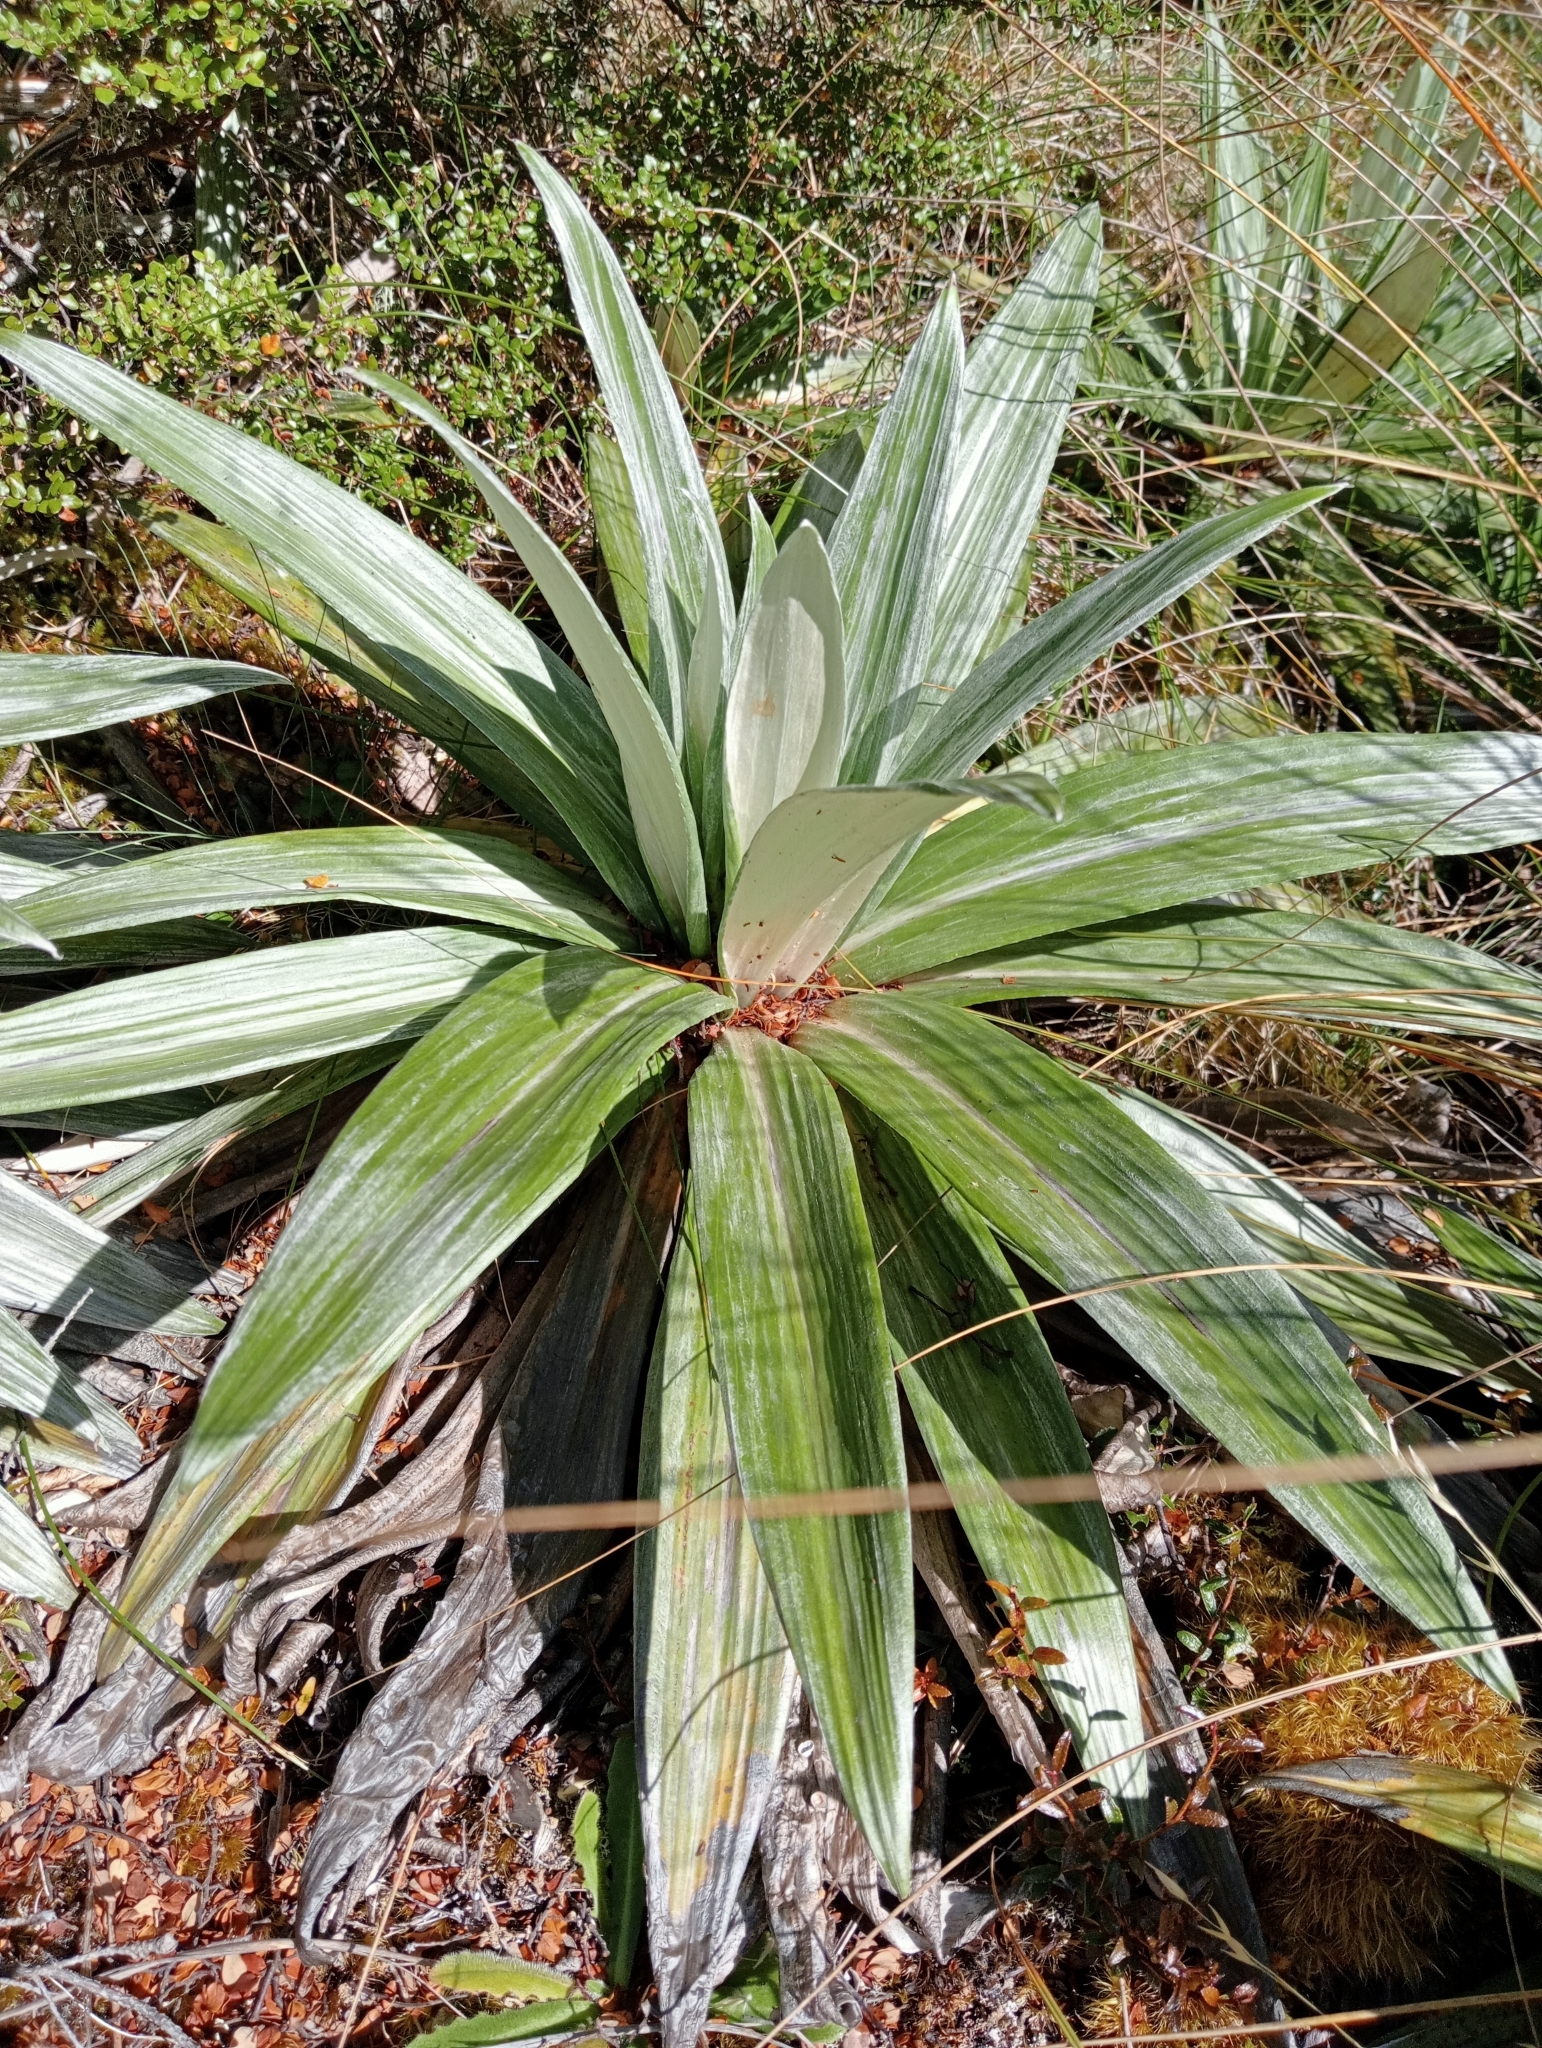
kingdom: Plantae
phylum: Tracheophyta
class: Magnoliopsida
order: Asterales
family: Asteraceae
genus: Celmisia
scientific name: Celmisia semicordata
